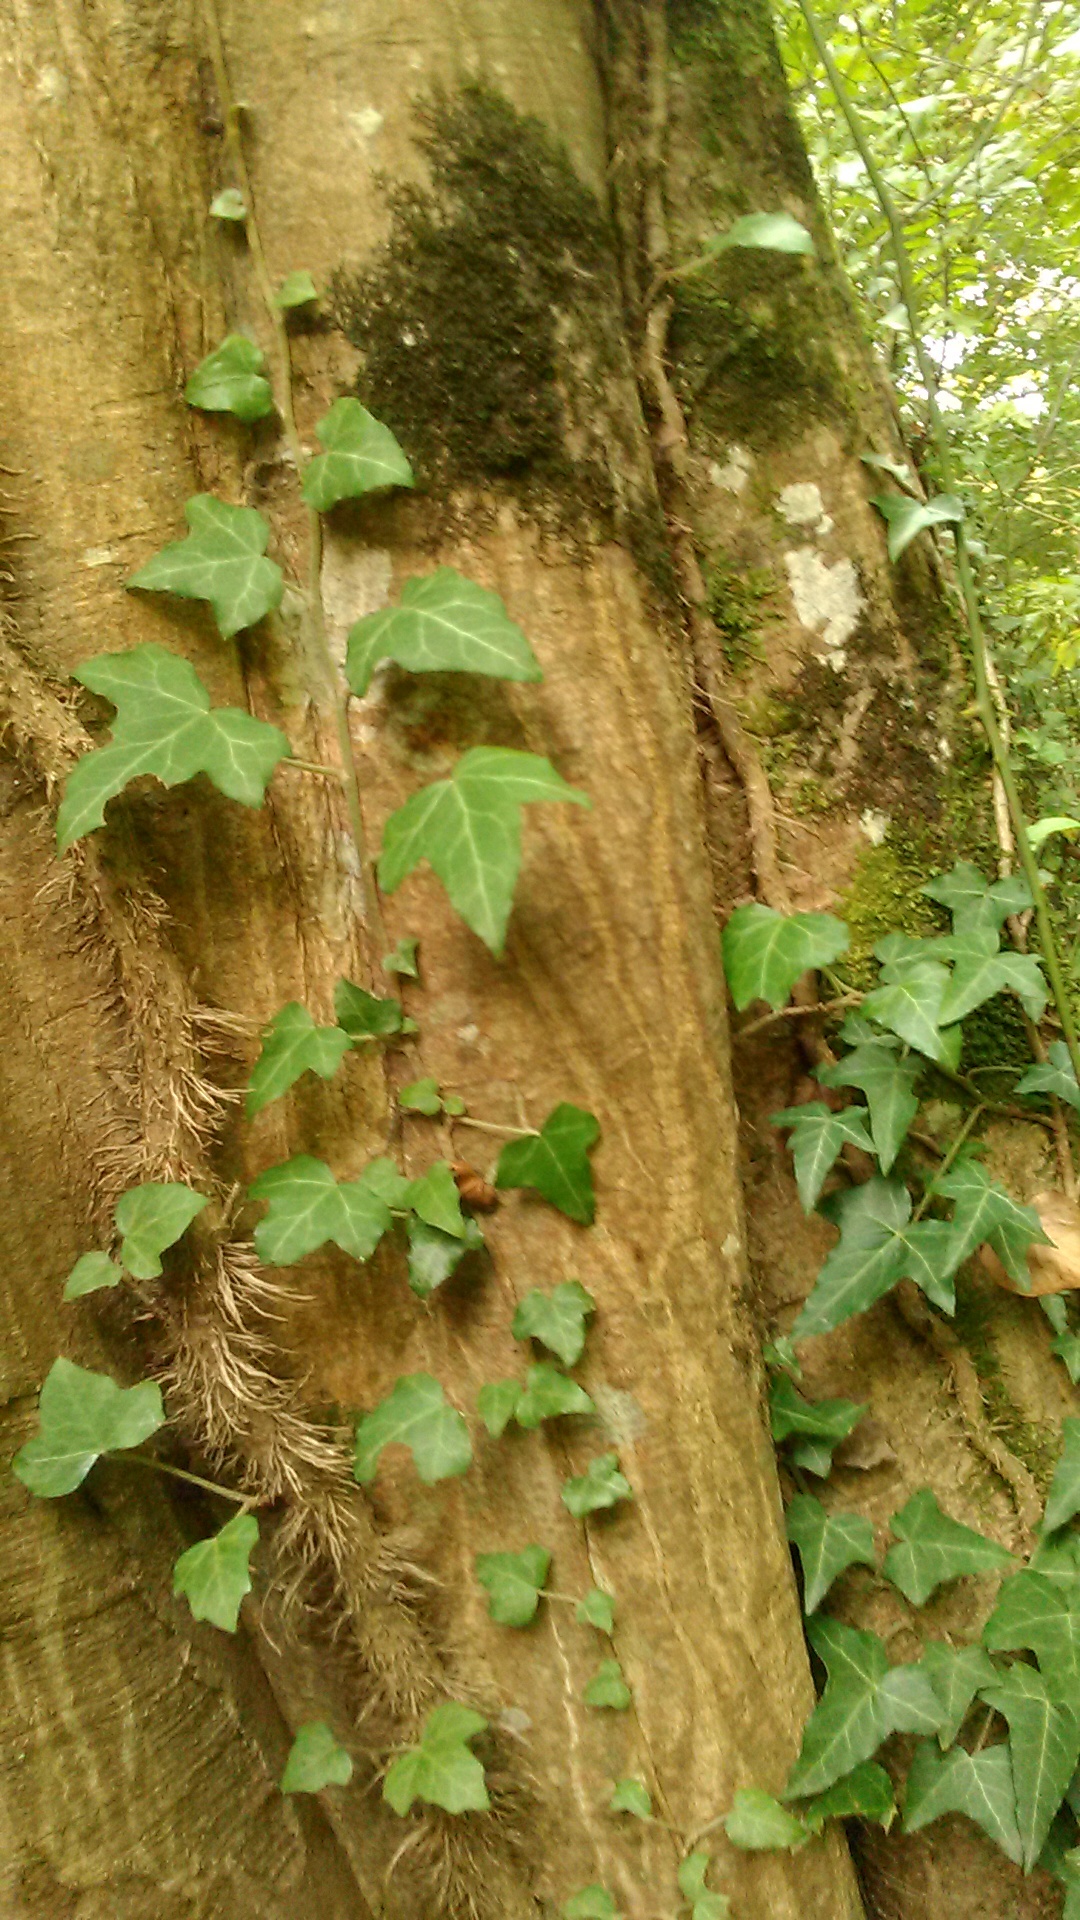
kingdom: Plantae
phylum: Tracheophyta
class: Magnoliopsida
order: Apiales
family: Araliaceae
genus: Hedera
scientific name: Hedera helix
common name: Ivy
